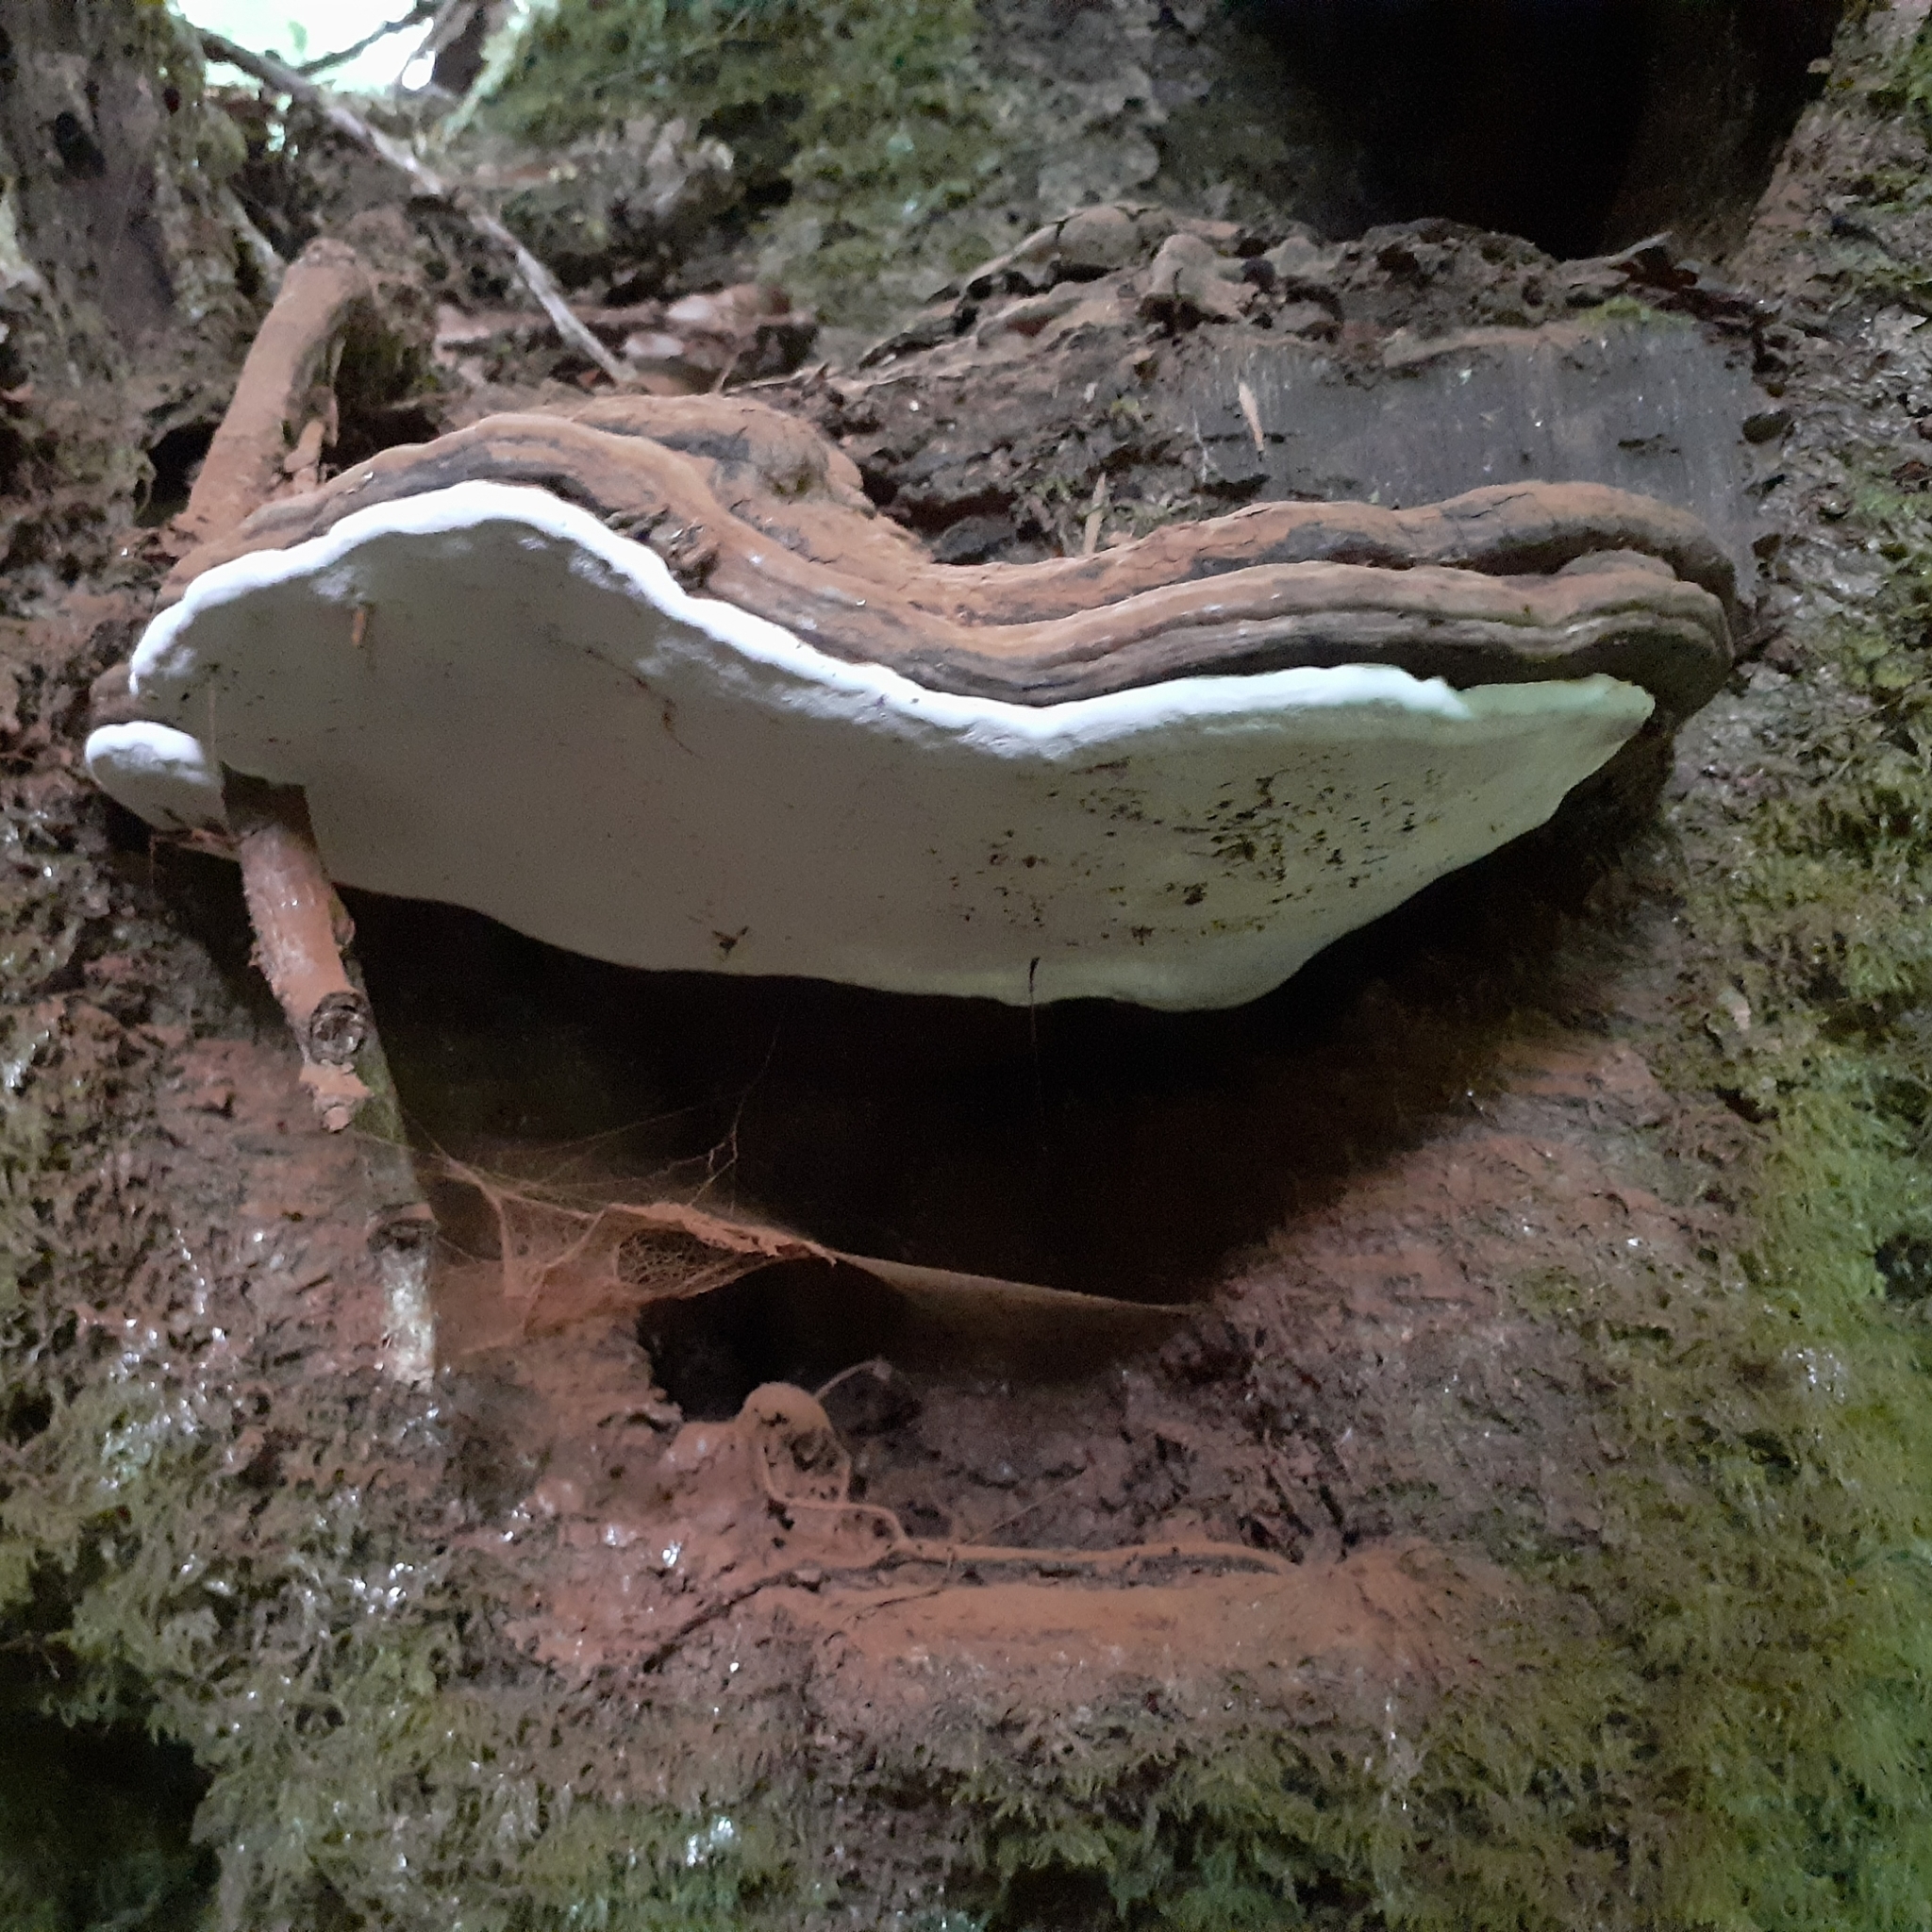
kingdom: Fungi
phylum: Basidiomycota
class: Agaricomycetes
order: Polyporales
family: Polyporaceae
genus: Ganoderma
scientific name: Ganoderma applanatum
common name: Artist's bracket
